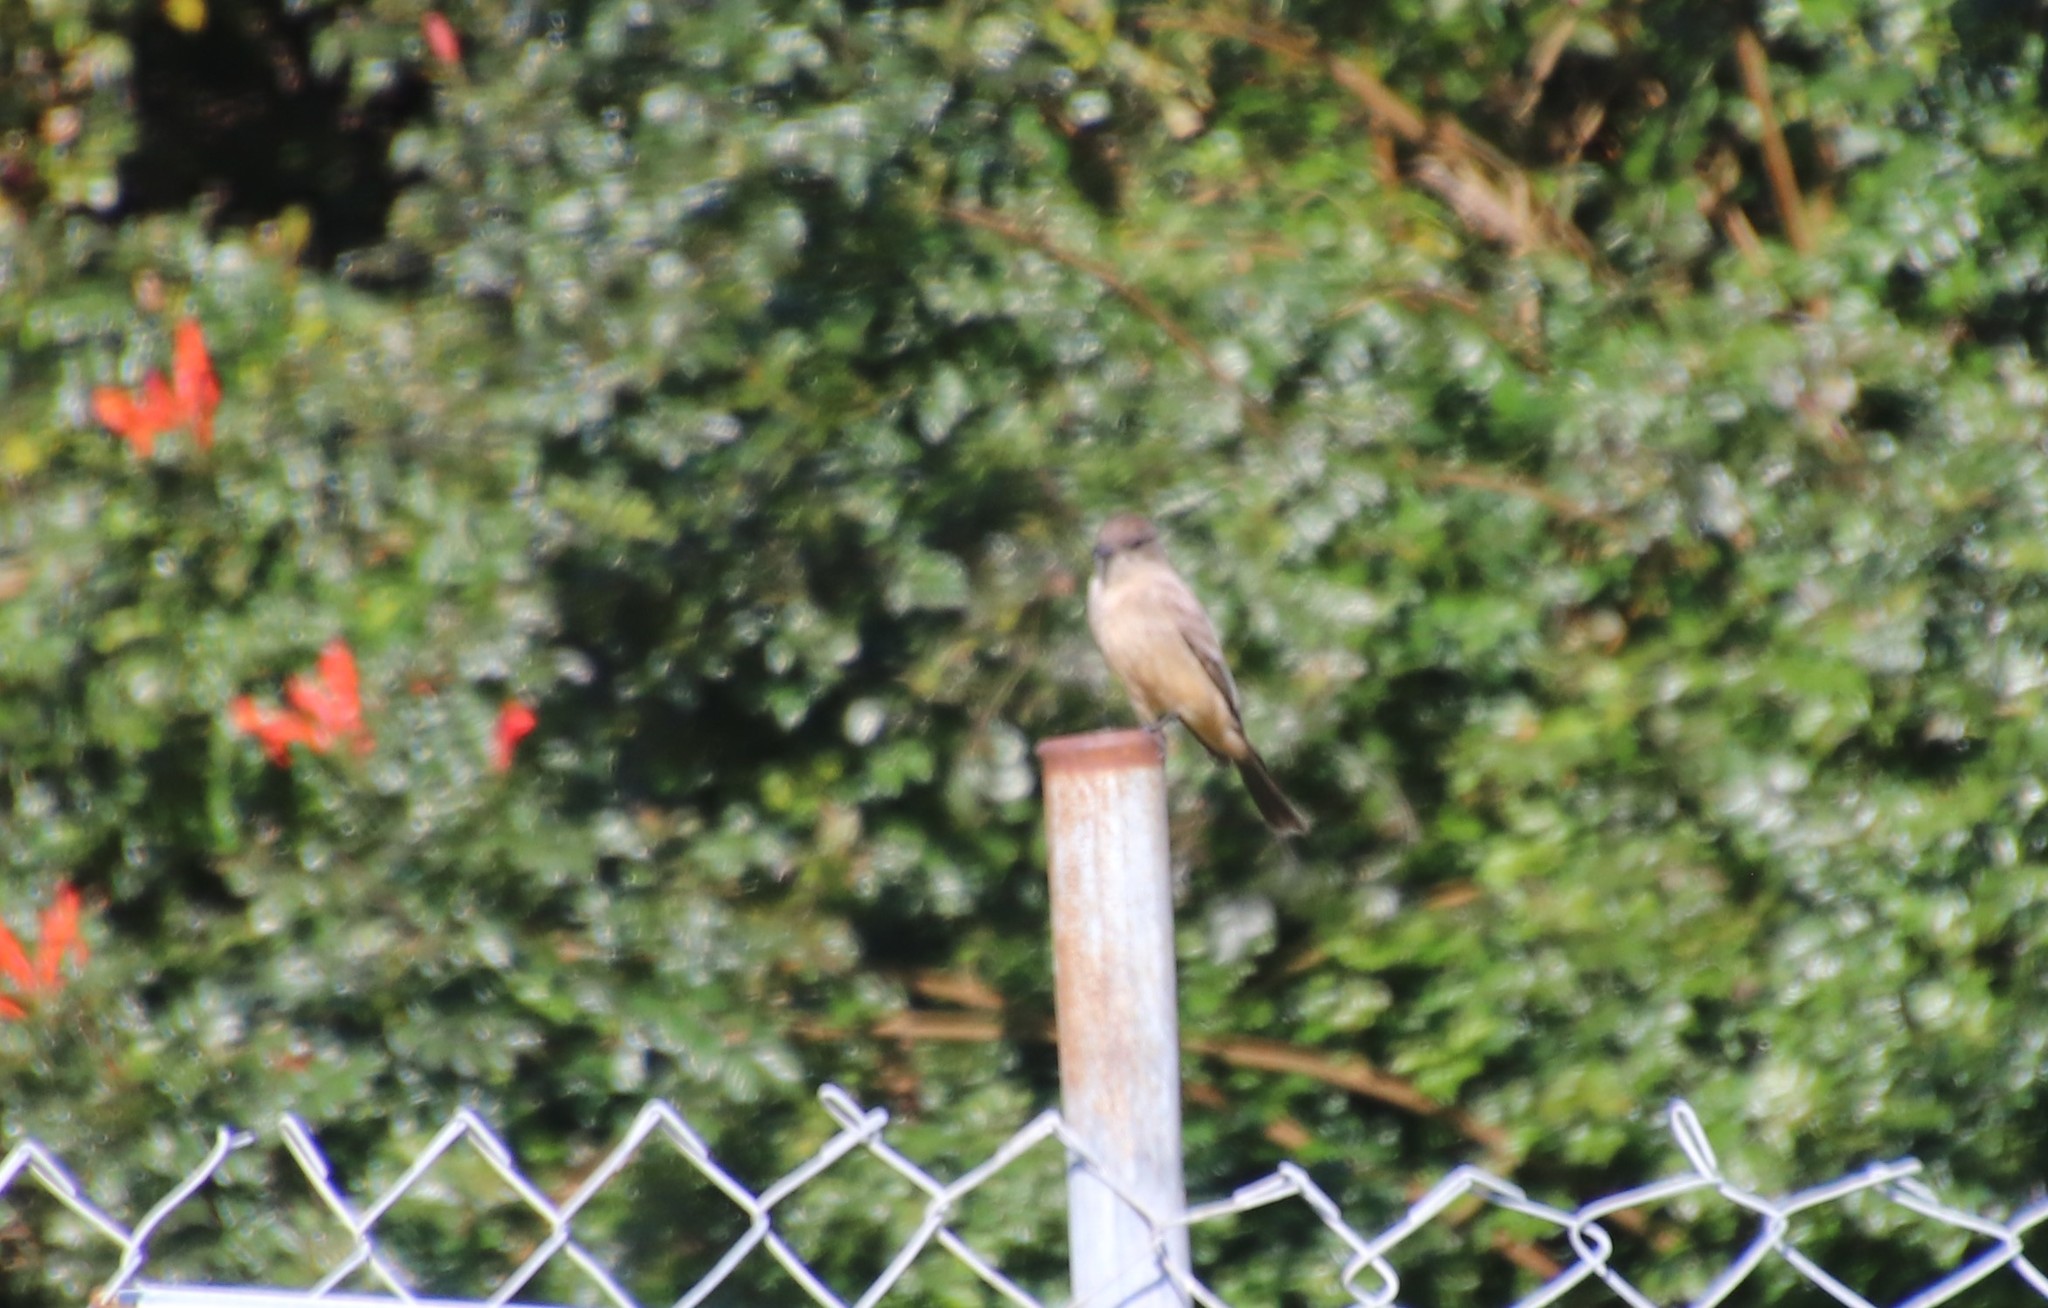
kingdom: Animalia
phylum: Chordata
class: Aves
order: Passeriformes
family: Tyrannidae
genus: Sayornis
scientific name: Sayornis saya
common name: Say's phoebe
